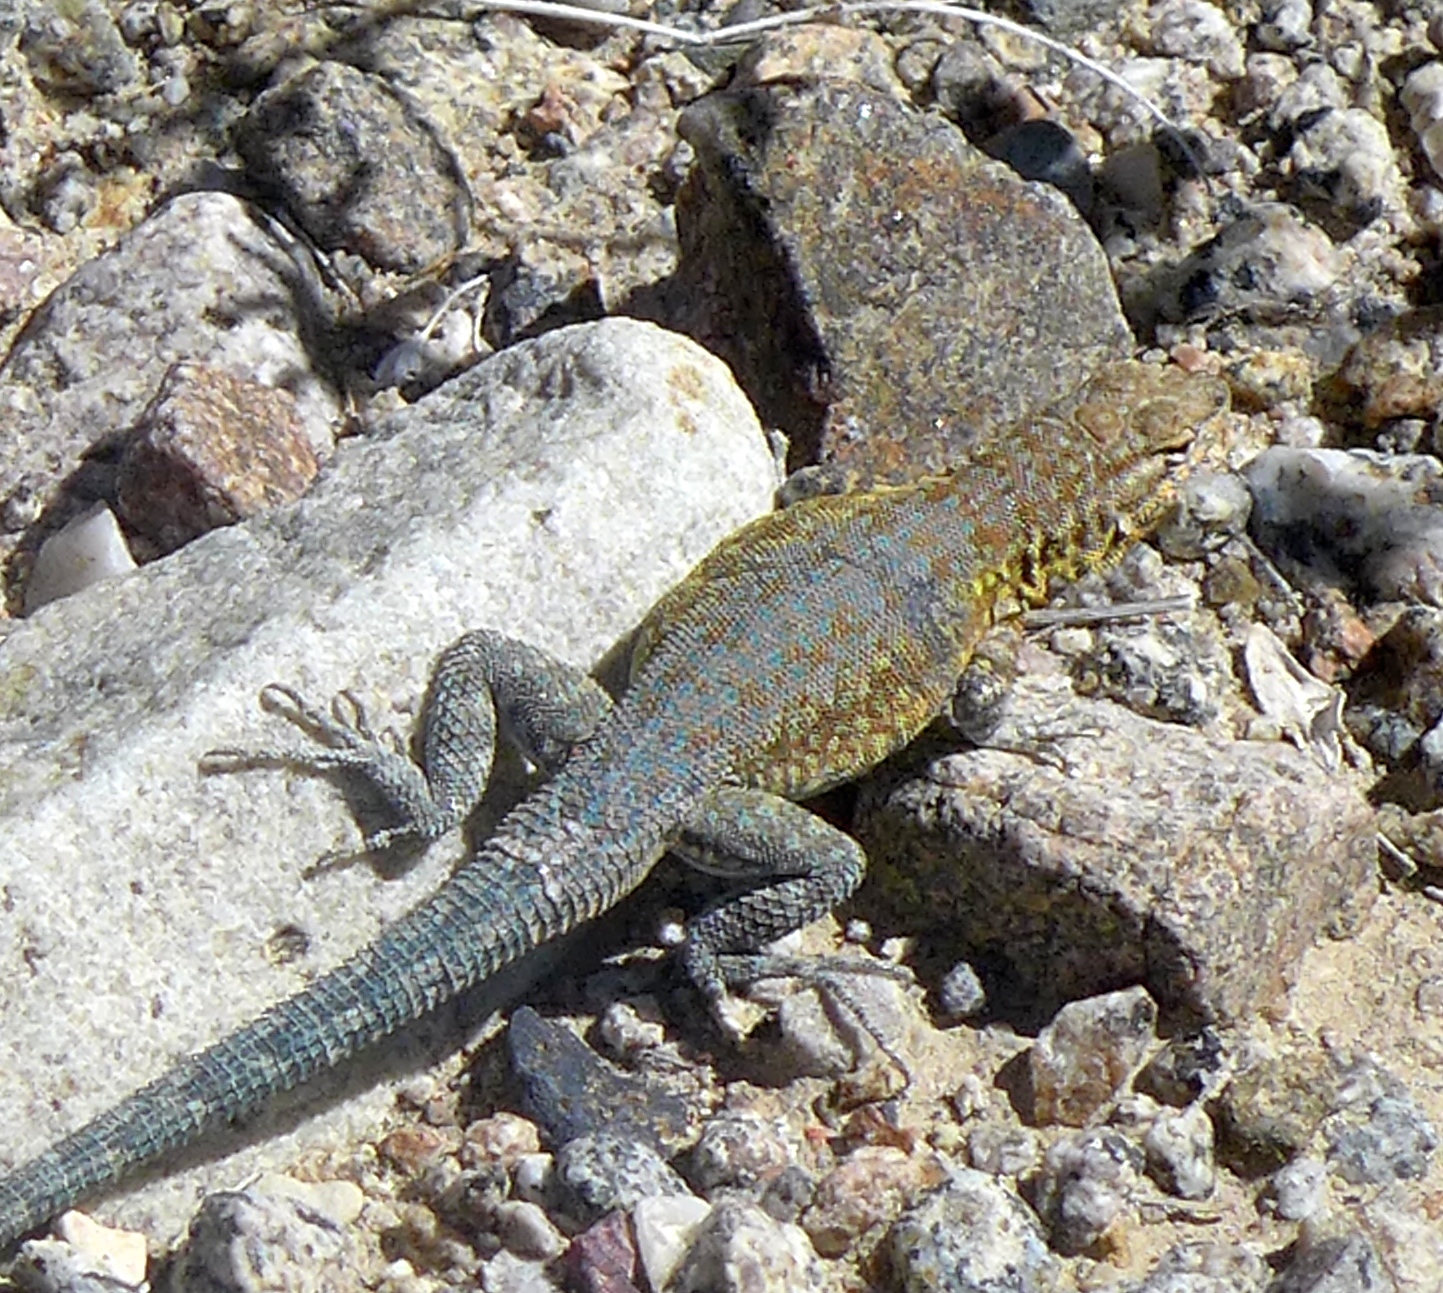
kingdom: Animalia
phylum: Chordata
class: Squamata
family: Phrynosomatidae
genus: Uta
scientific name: Uta stansburiana
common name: Side-blotched lizard
